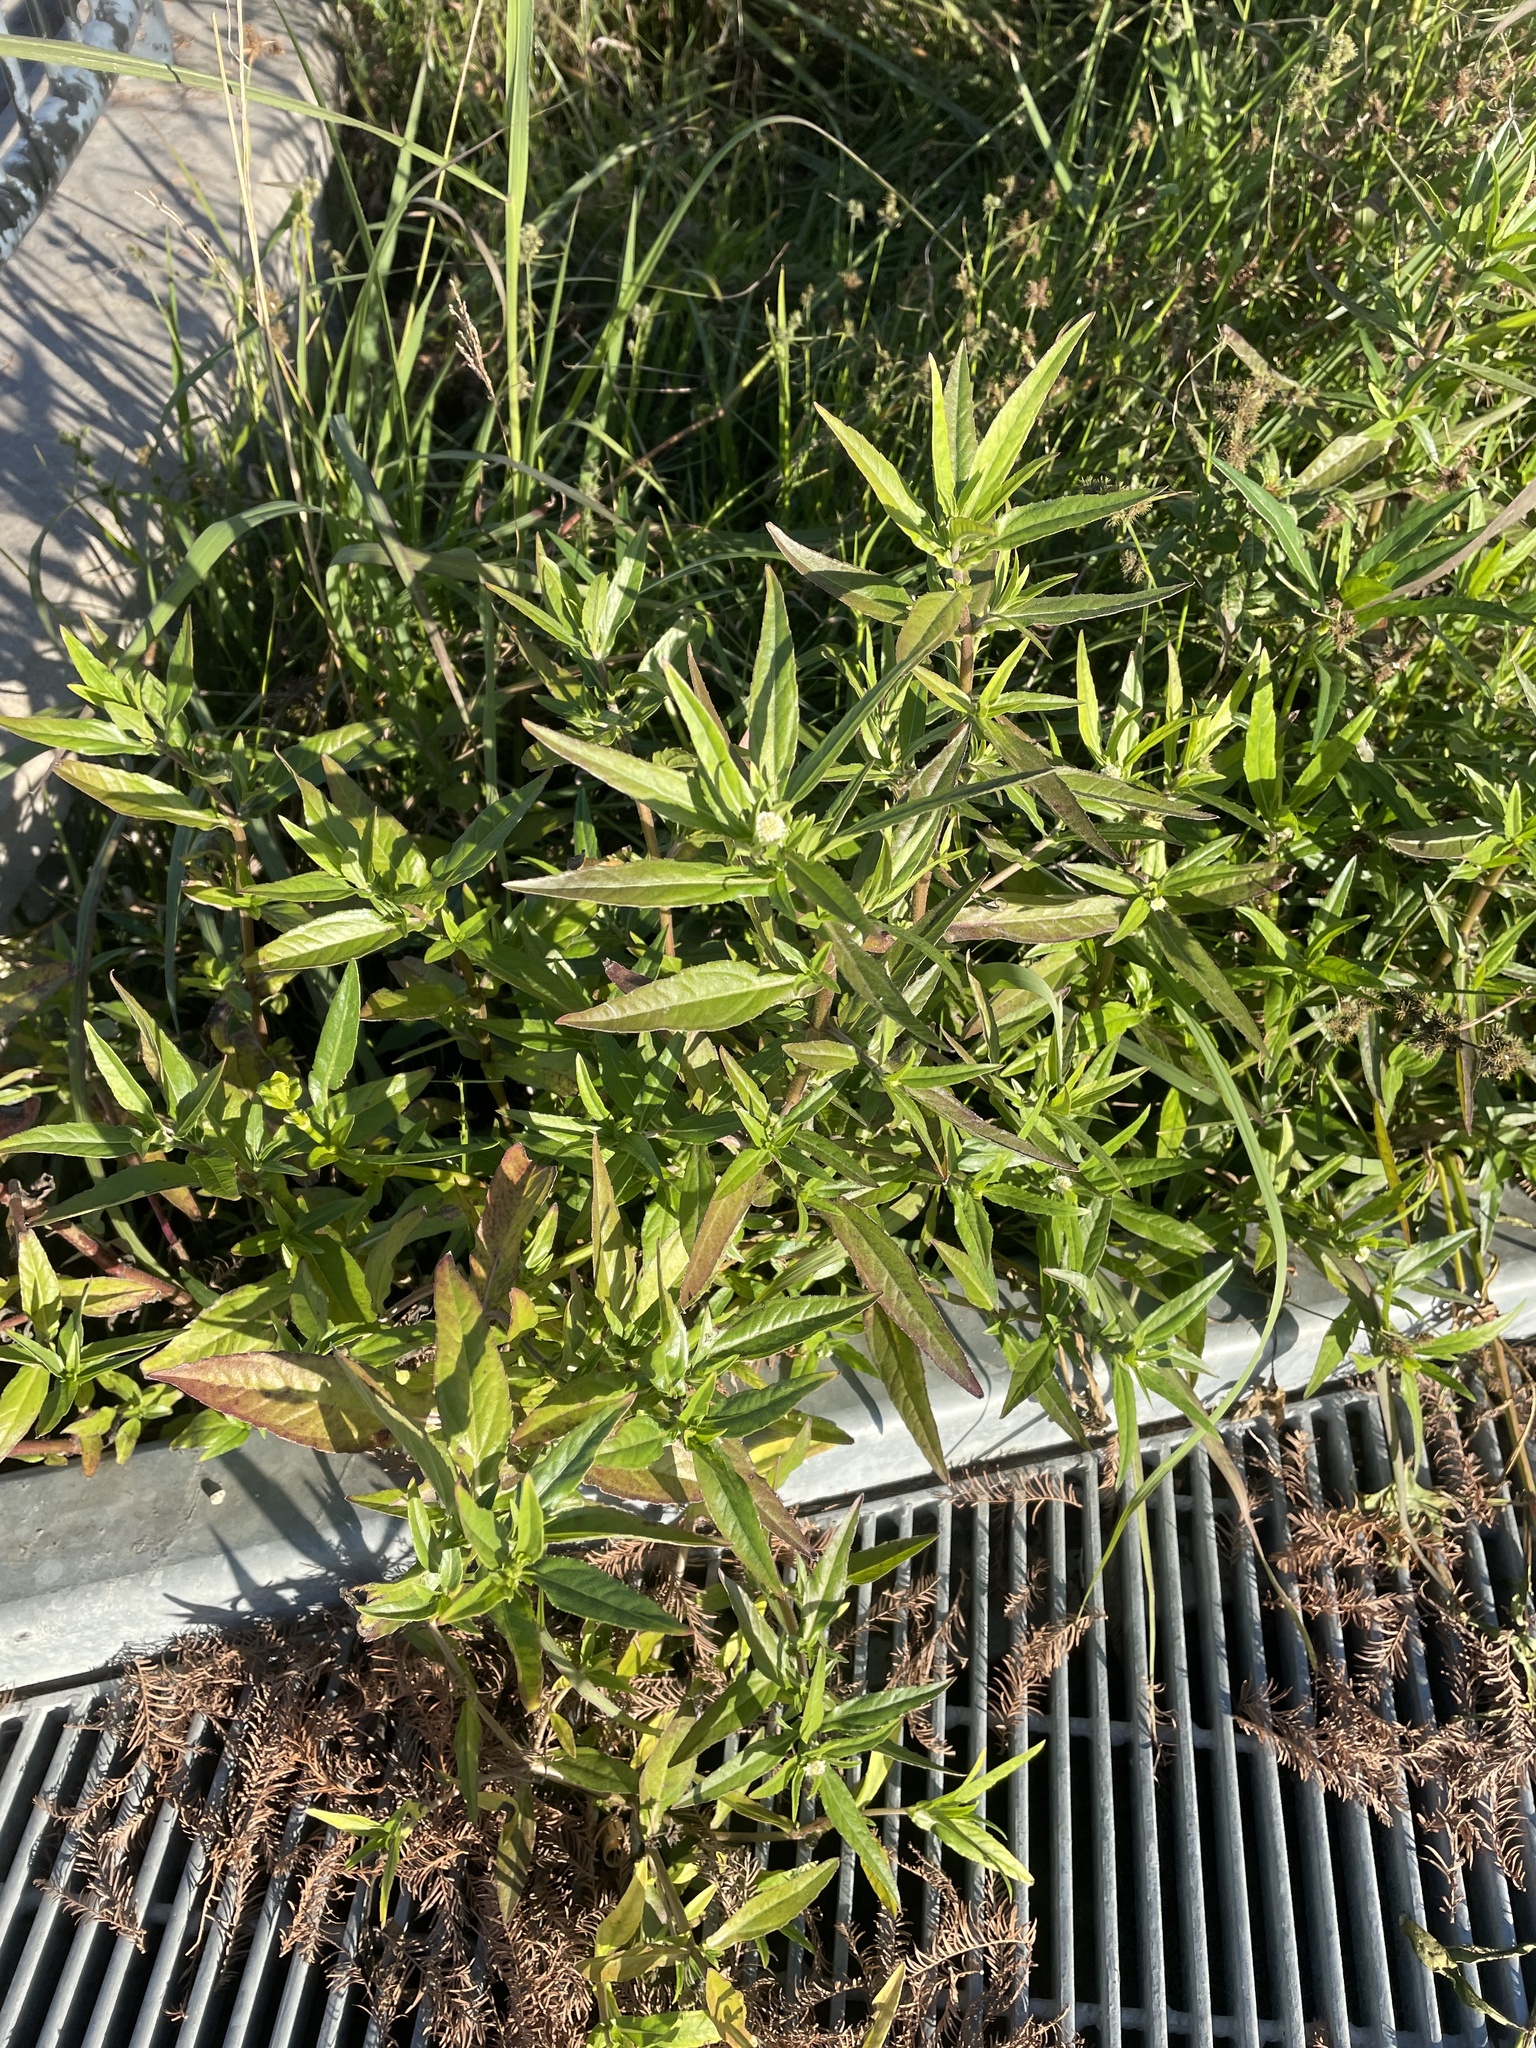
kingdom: Plantae
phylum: Tracheophyta
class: Magnoliopsida
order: Asterales
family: Asteraceae
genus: Eclipta
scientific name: Eclipta prostrata
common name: False daisy
